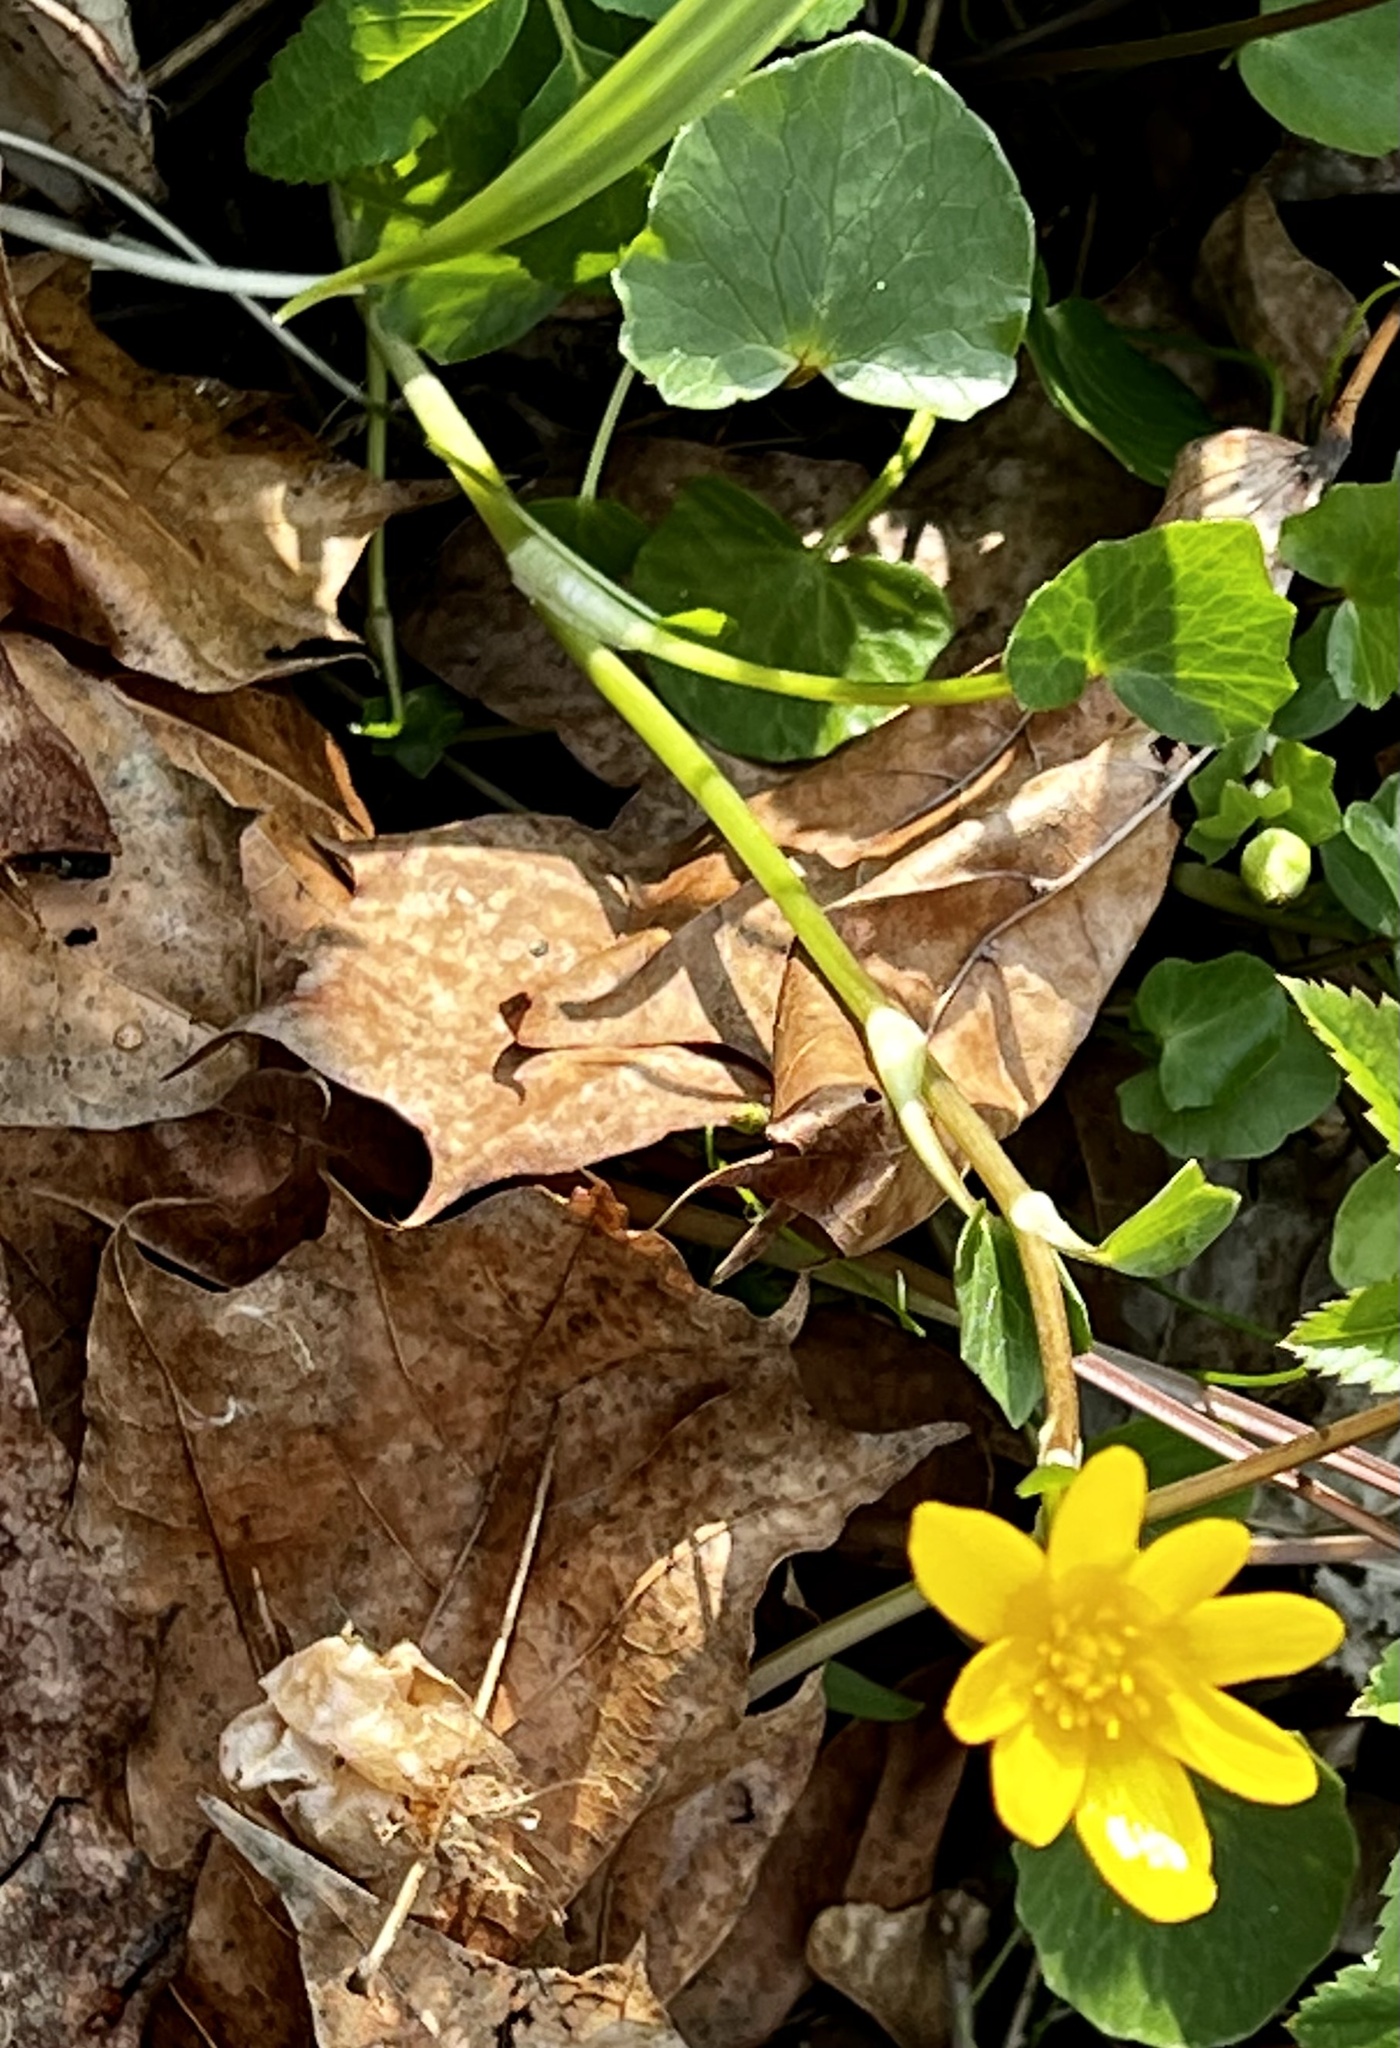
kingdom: Plantae
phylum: Tracheophyta
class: Magnoliopsida
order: Ranunculales
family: Ranunculaceae
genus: Ficaria
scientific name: Ficaria verna
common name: Lesser celandine
